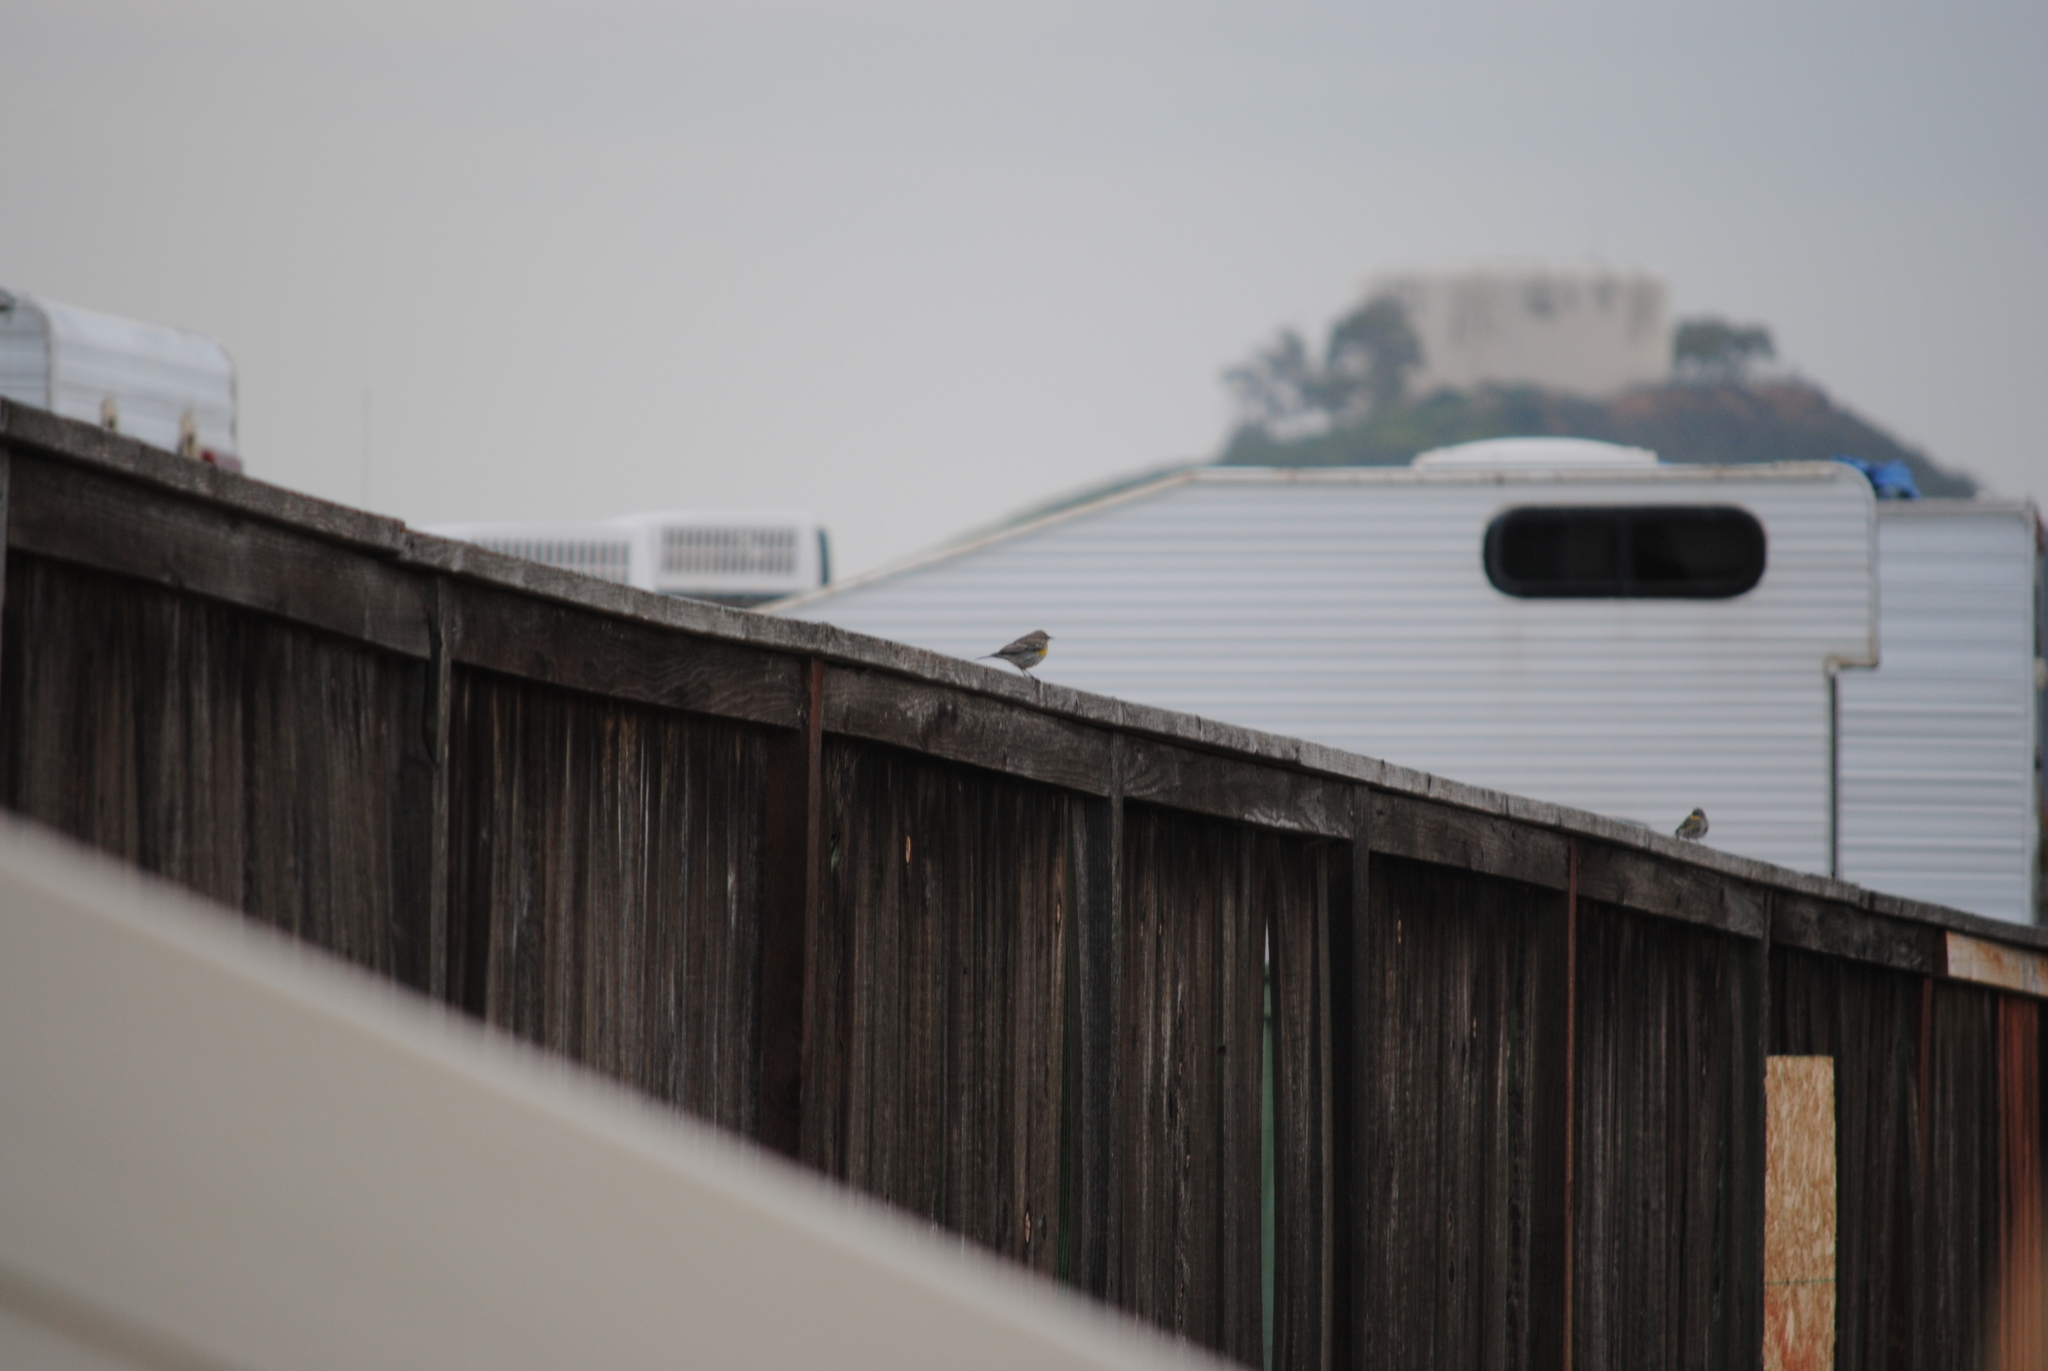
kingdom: Animalia
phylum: Chordata
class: Aves
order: Passeriformes
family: Parulidae
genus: Setophaga
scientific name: Setophaga coronata
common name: Myrtle warbler
